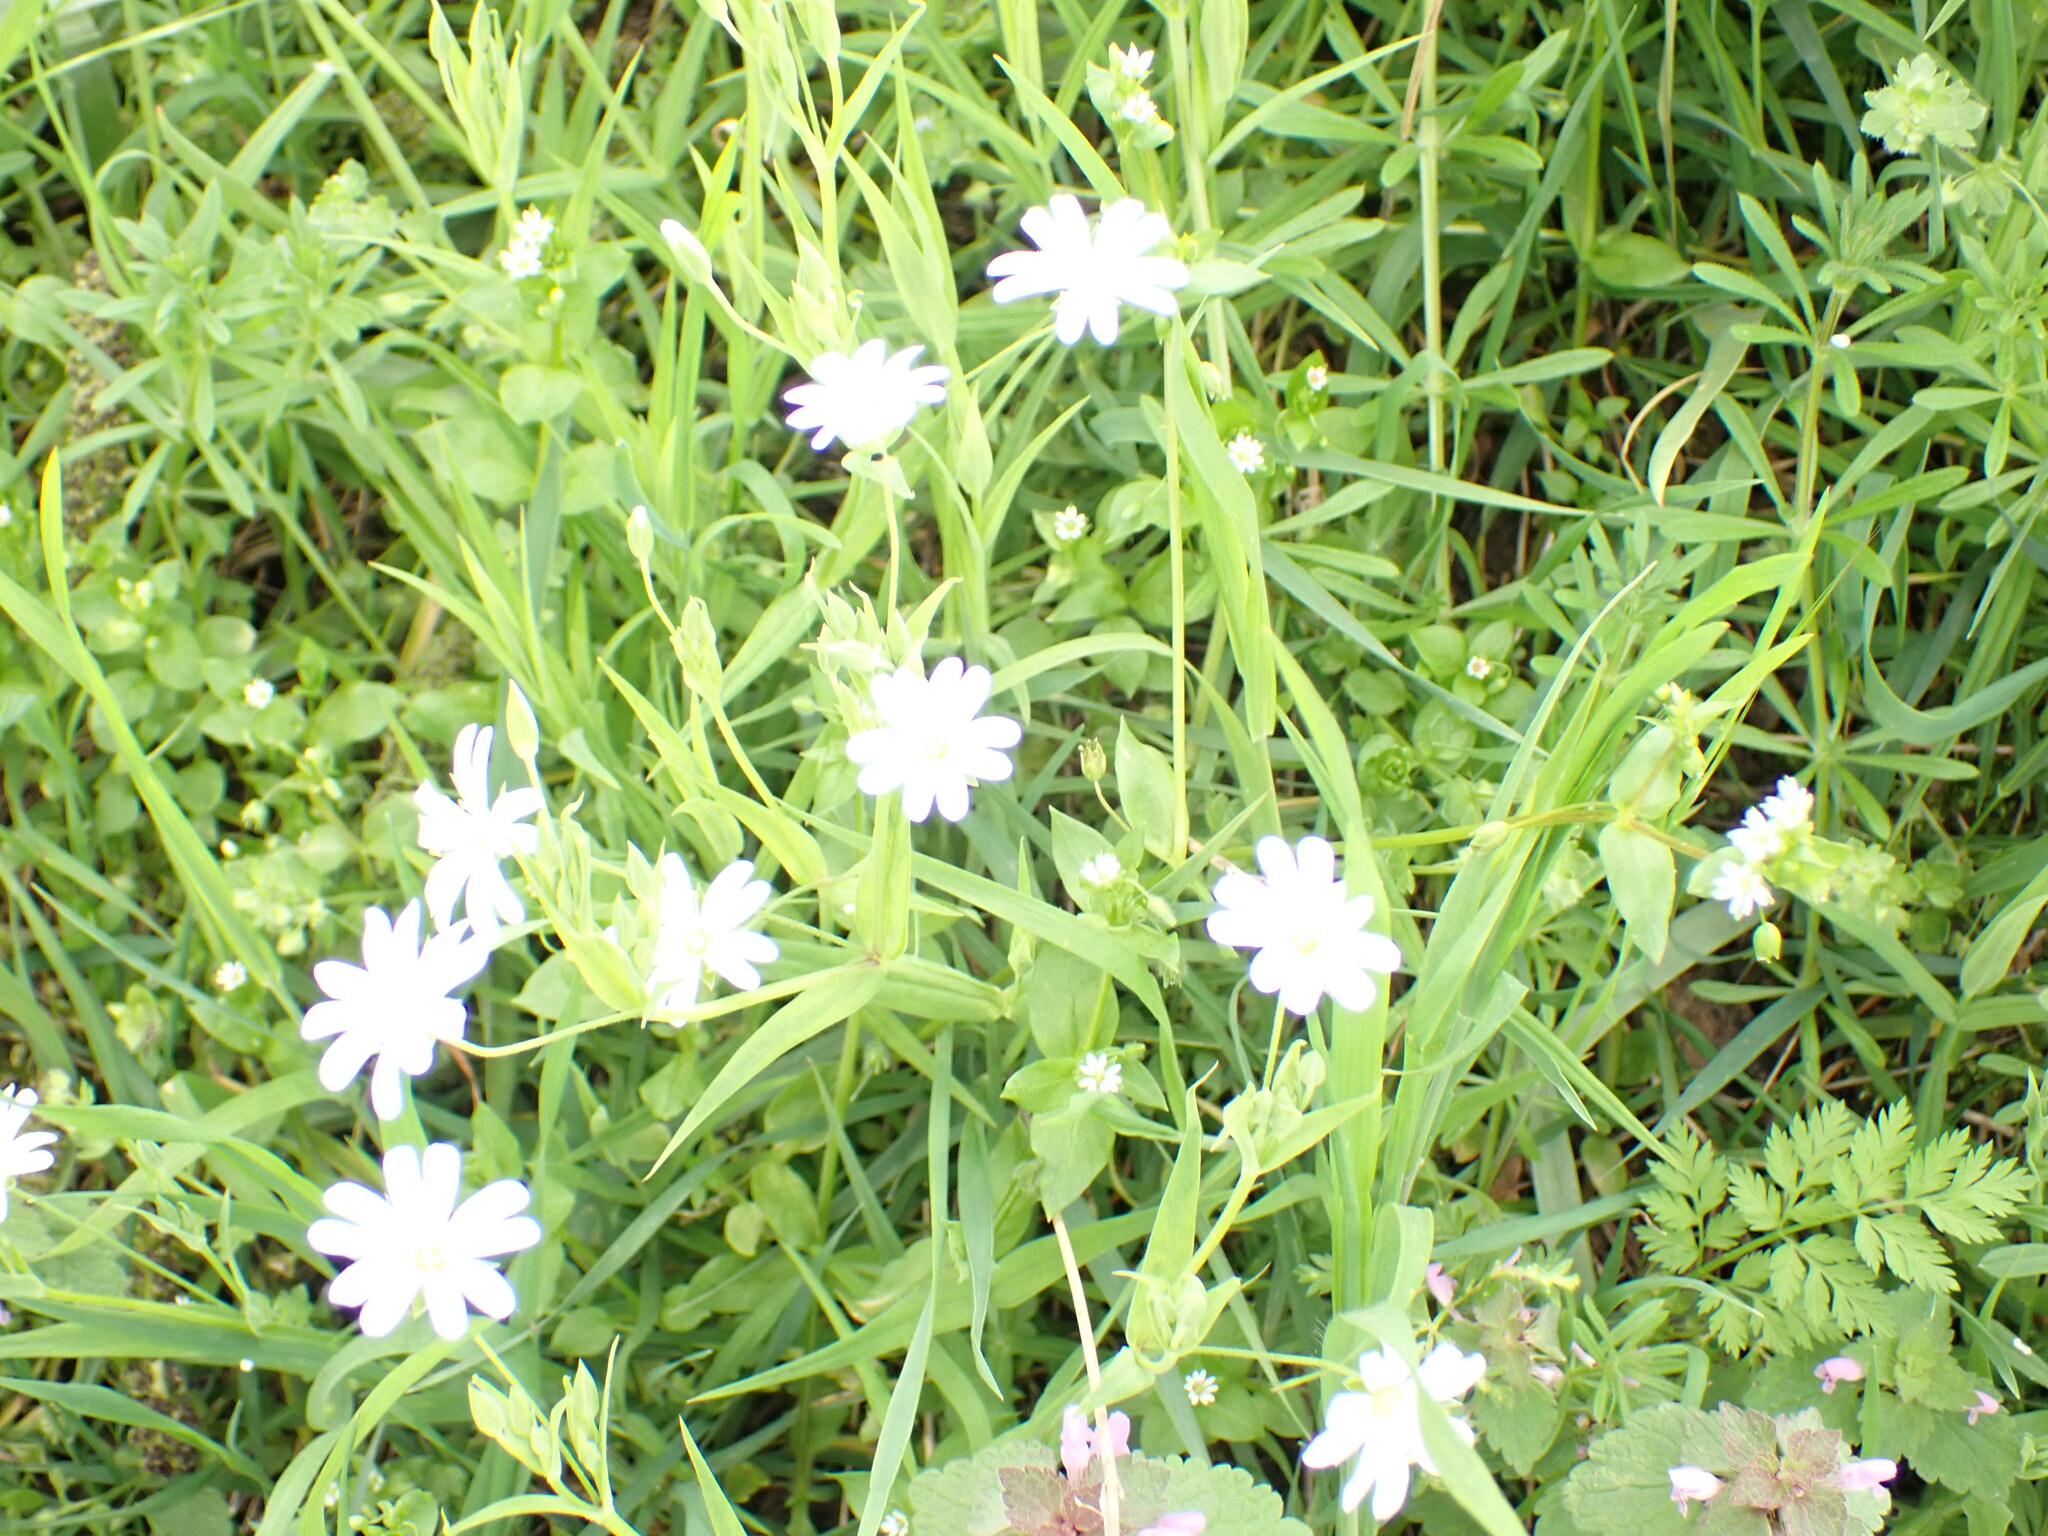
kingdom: Plantae
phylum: Tracheophyta
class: Magnoliopsida
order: Caryophyllales
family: Caryophyllaceae
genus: Rabelera
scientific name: Rabelera holostea
